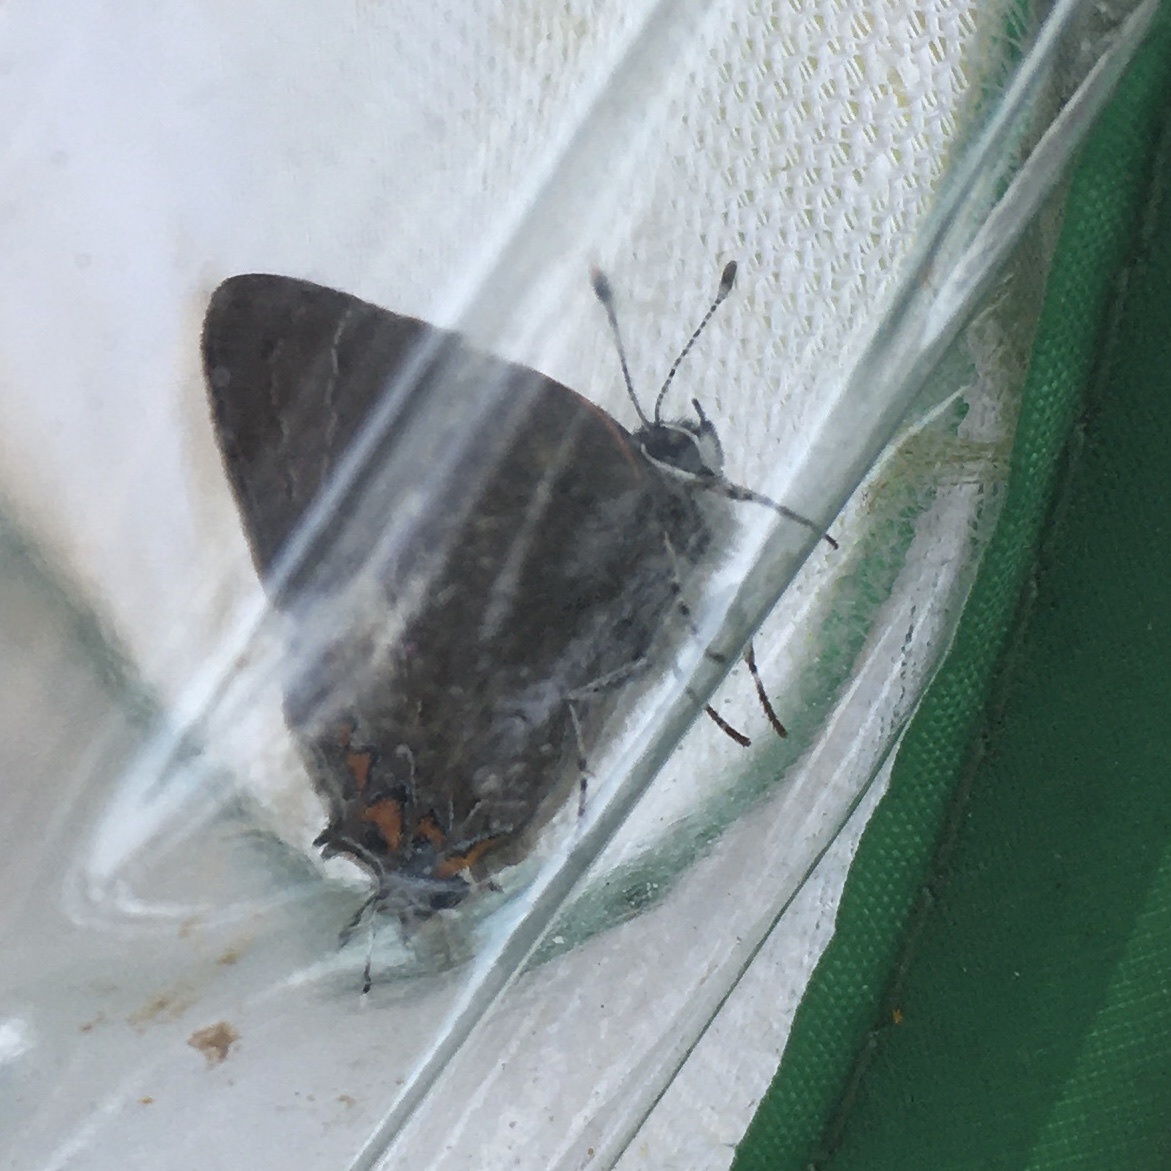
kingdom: Animalia
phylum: Arthropoda
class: Insecta
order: Lepidoptera
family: Lycaenidae
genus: Fixsenia
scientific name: Fixsenia favonius
